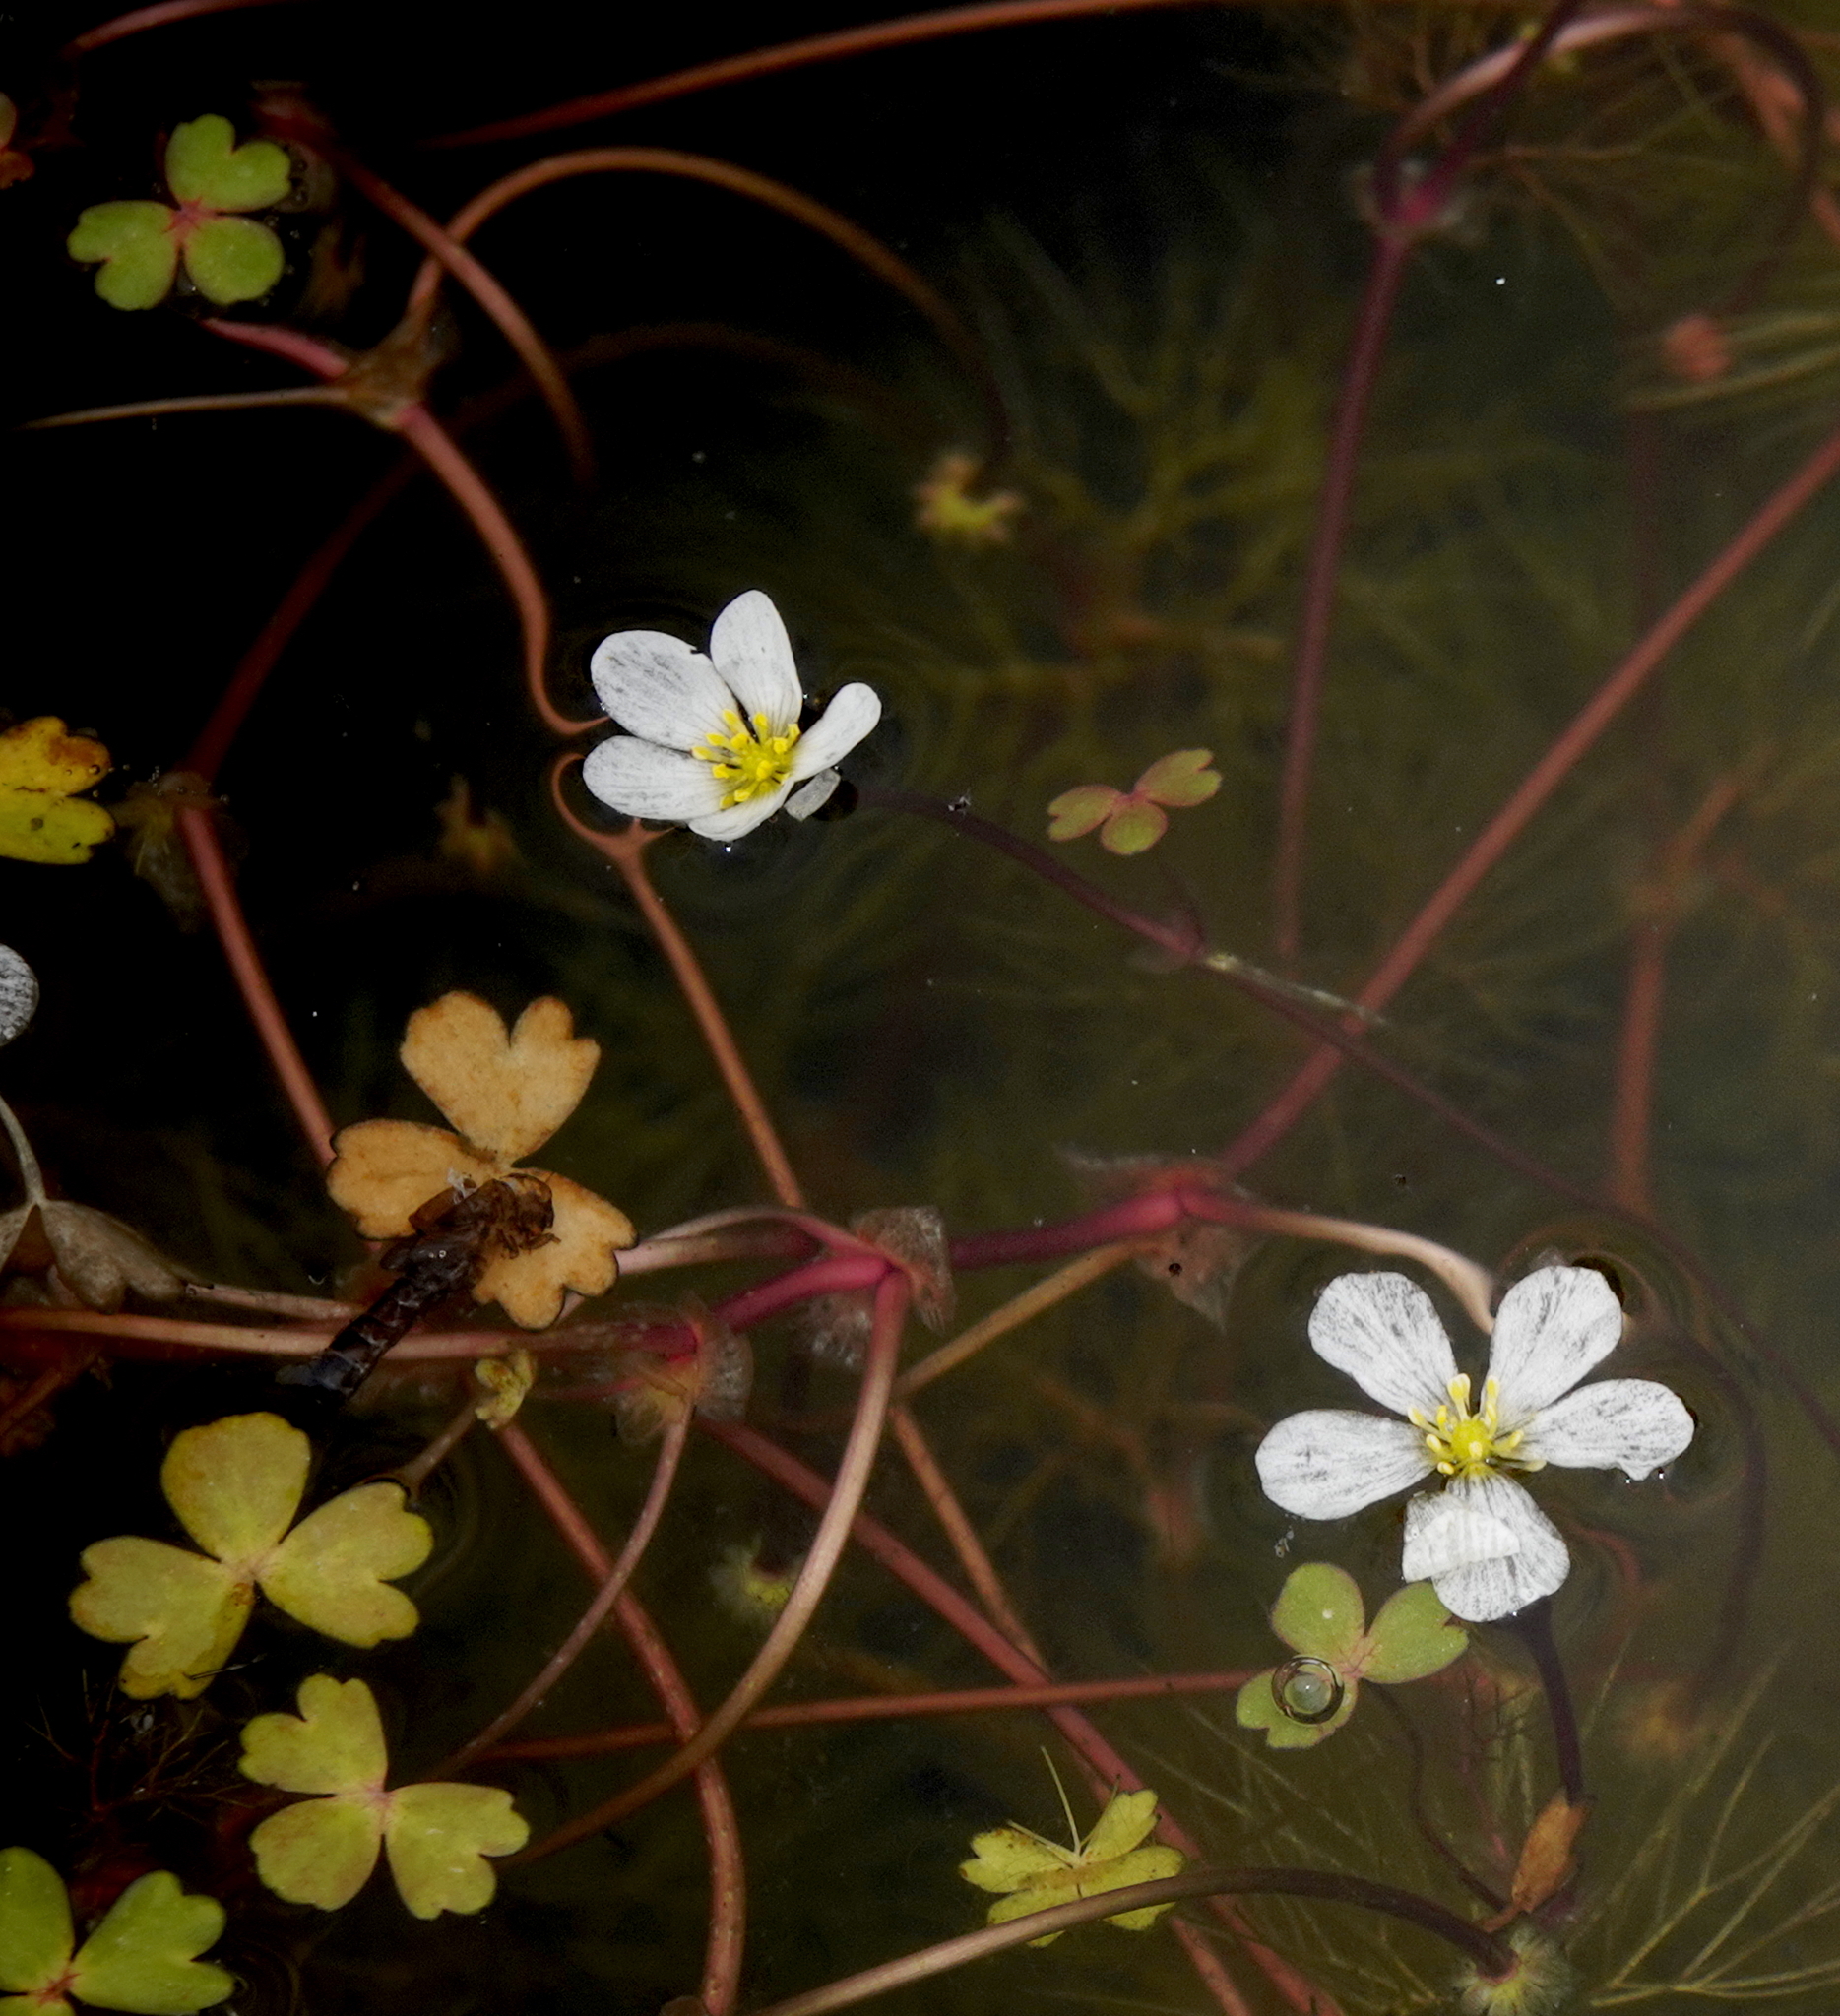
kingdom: Plantae
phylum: Tracheophyta
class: Magnoliopsida
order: Ranunculales
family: Ranunculaceae
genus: Ranunculus
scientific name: Ranunculus ololeucos
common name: White-flowered buttercup
